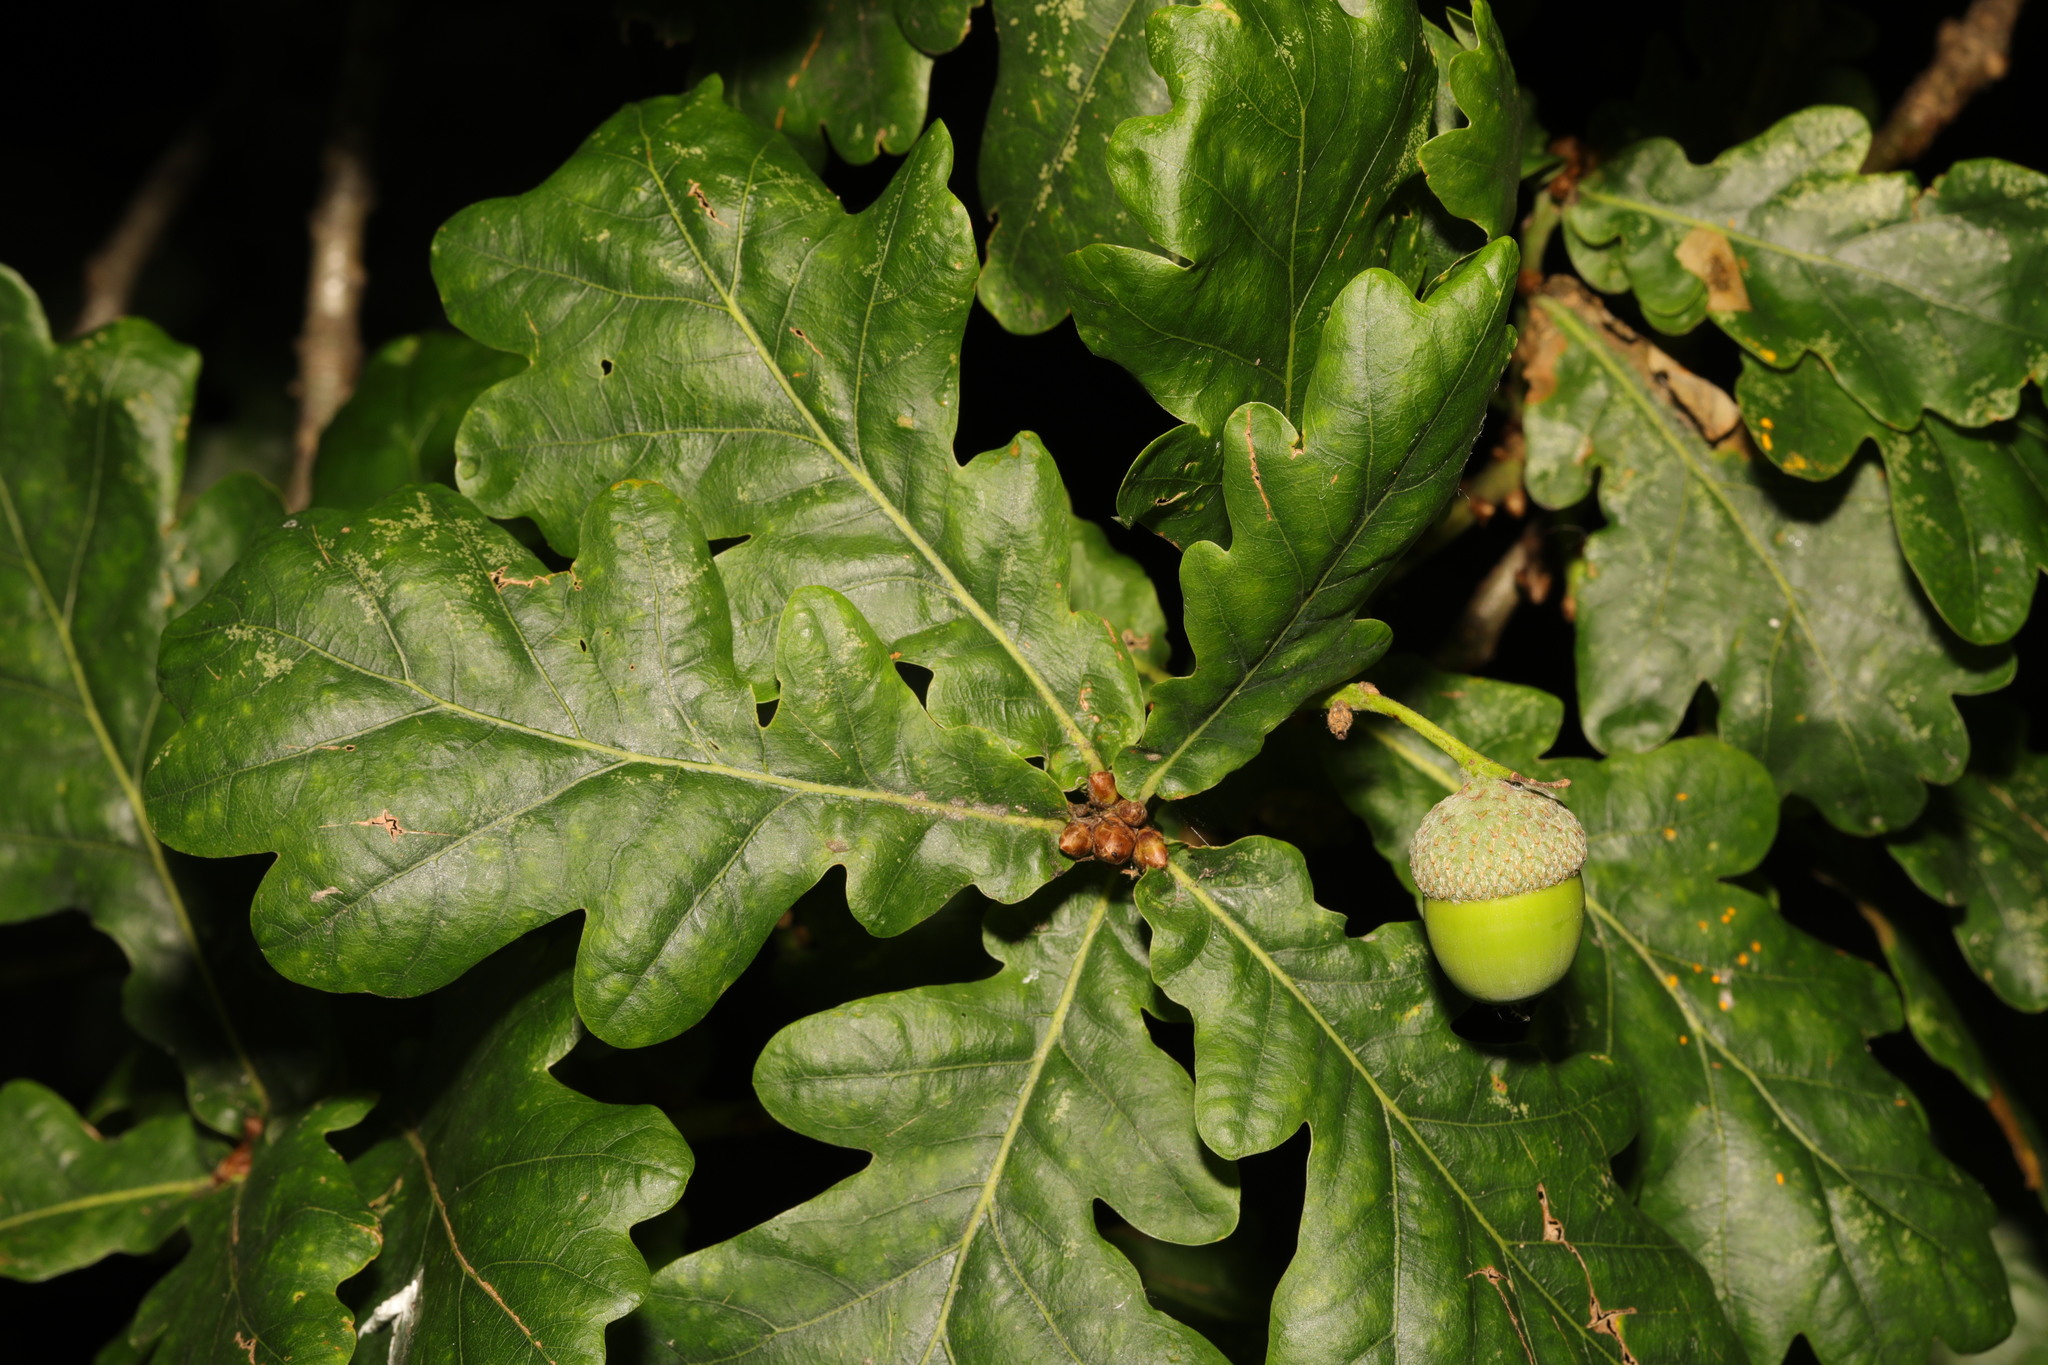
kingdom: Plantae
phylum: Tracheophyta
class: Magnoliopsida
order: Fagales
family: Fagaceae
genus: Quercus
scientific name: Quercus robur
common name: Pedunculate oak
